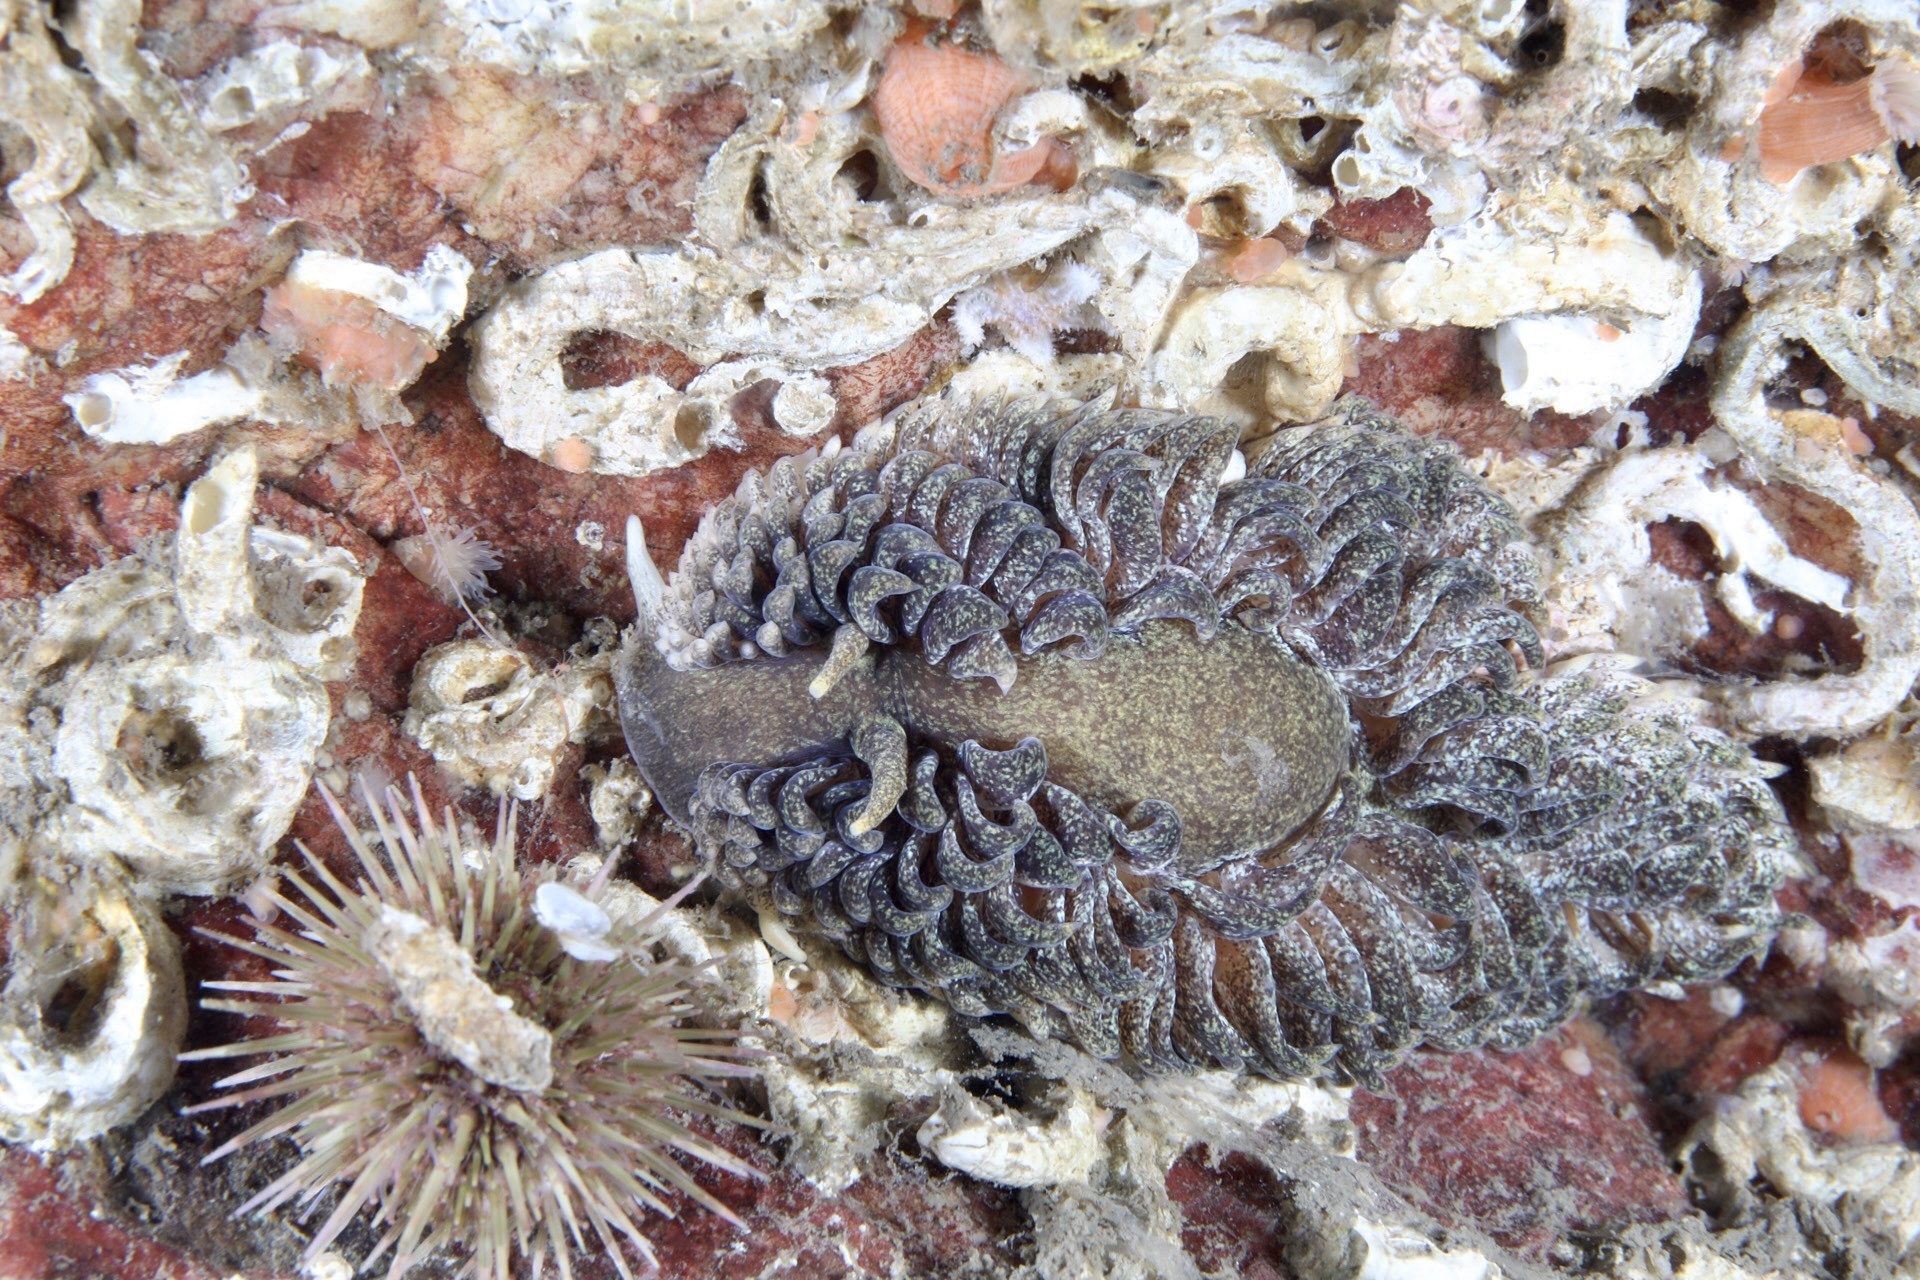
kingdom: Animalia
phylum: Mollusca
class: Gastropoda
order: Nudibranchia
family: Aeolidiidae
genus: Aeolidia
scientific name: Aeolidia papillosa
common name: Common grey sea slug
